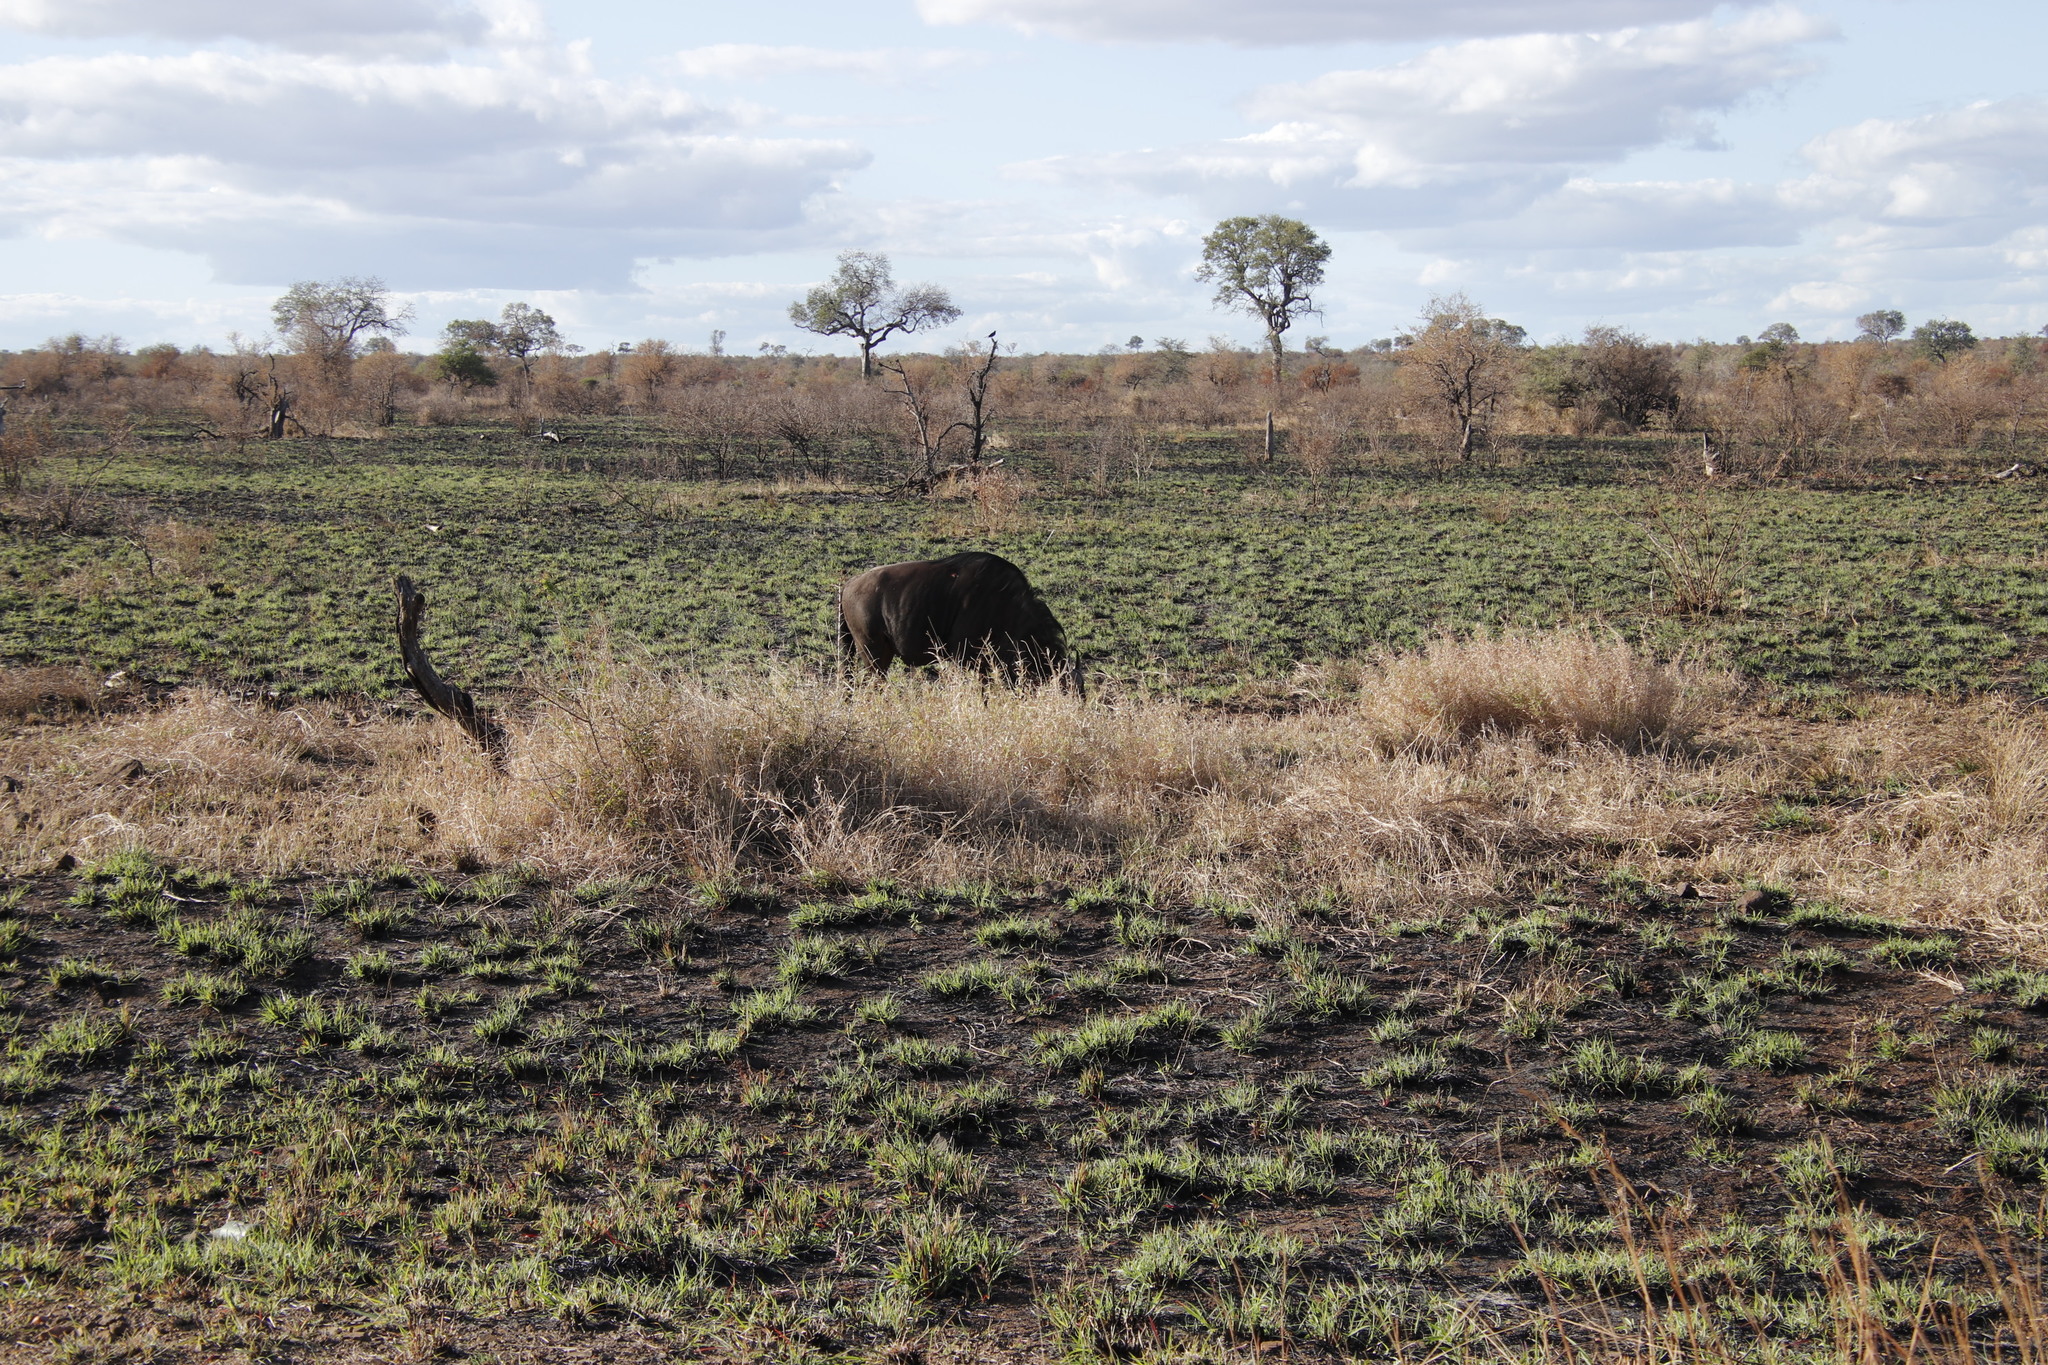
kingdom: Animalia
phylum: Chordata
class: Mammalia
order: Artiodactyla
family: Bovidae
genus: Connochaetes
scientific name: Connochaetes taurinus
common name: Blue wildebeest
